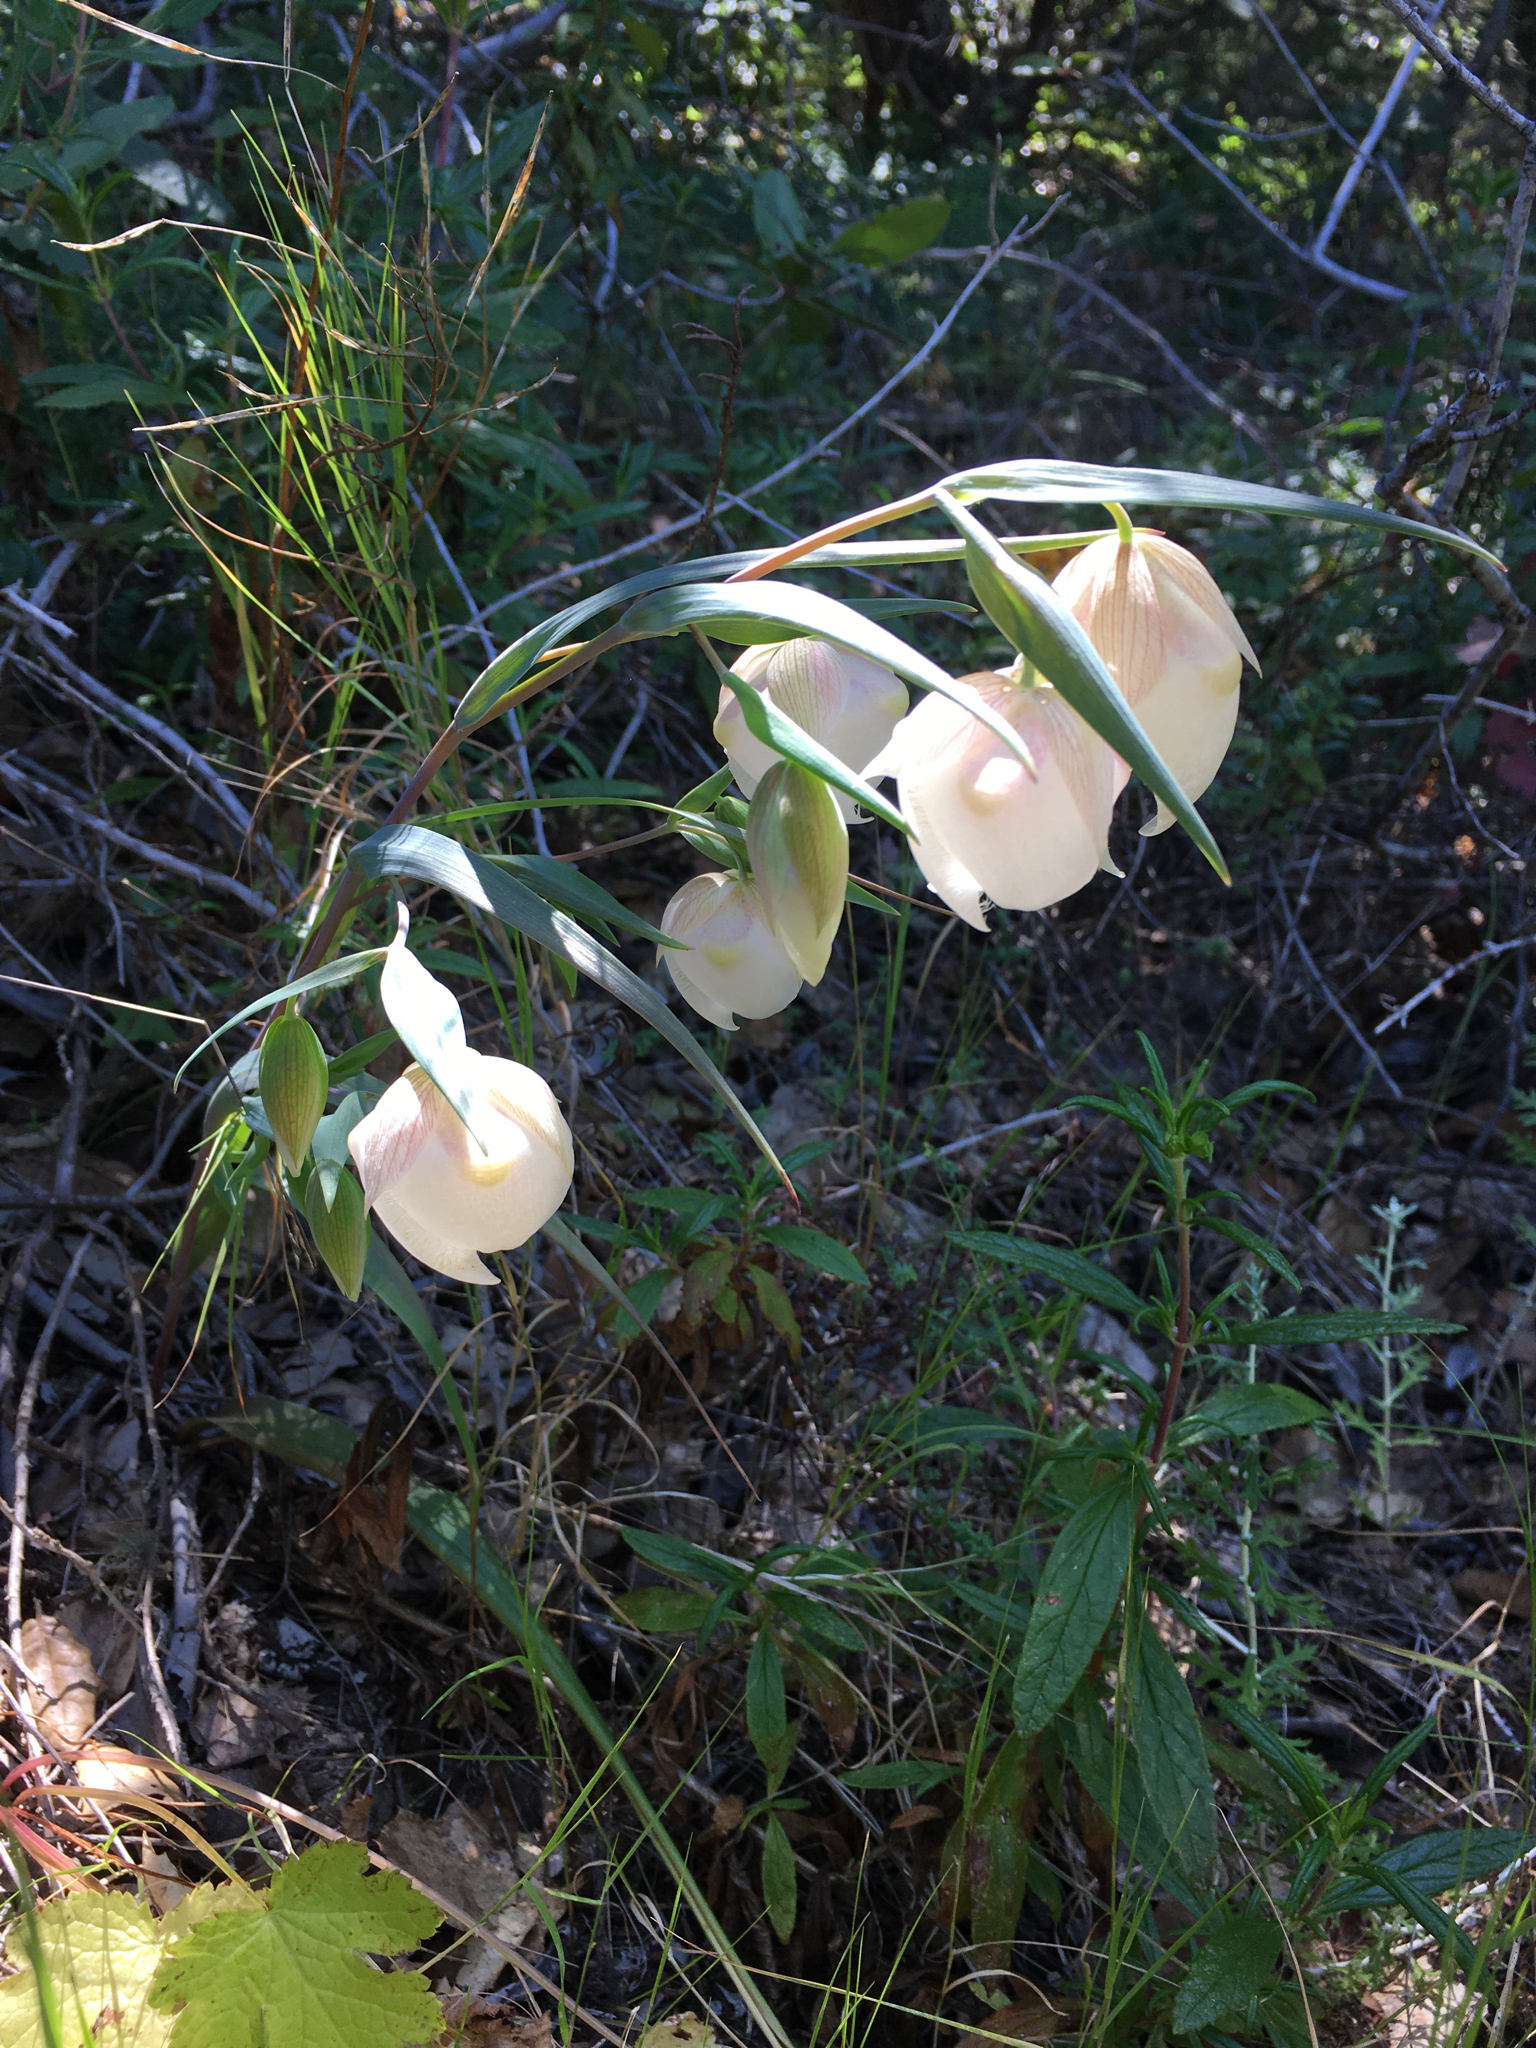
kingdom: Plantae
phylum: Tracheophyta
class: Liliopsida
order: Liliales
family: Liliaceae
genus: Calochortus
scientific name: Calochortus albus
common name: Fairy-lantern
